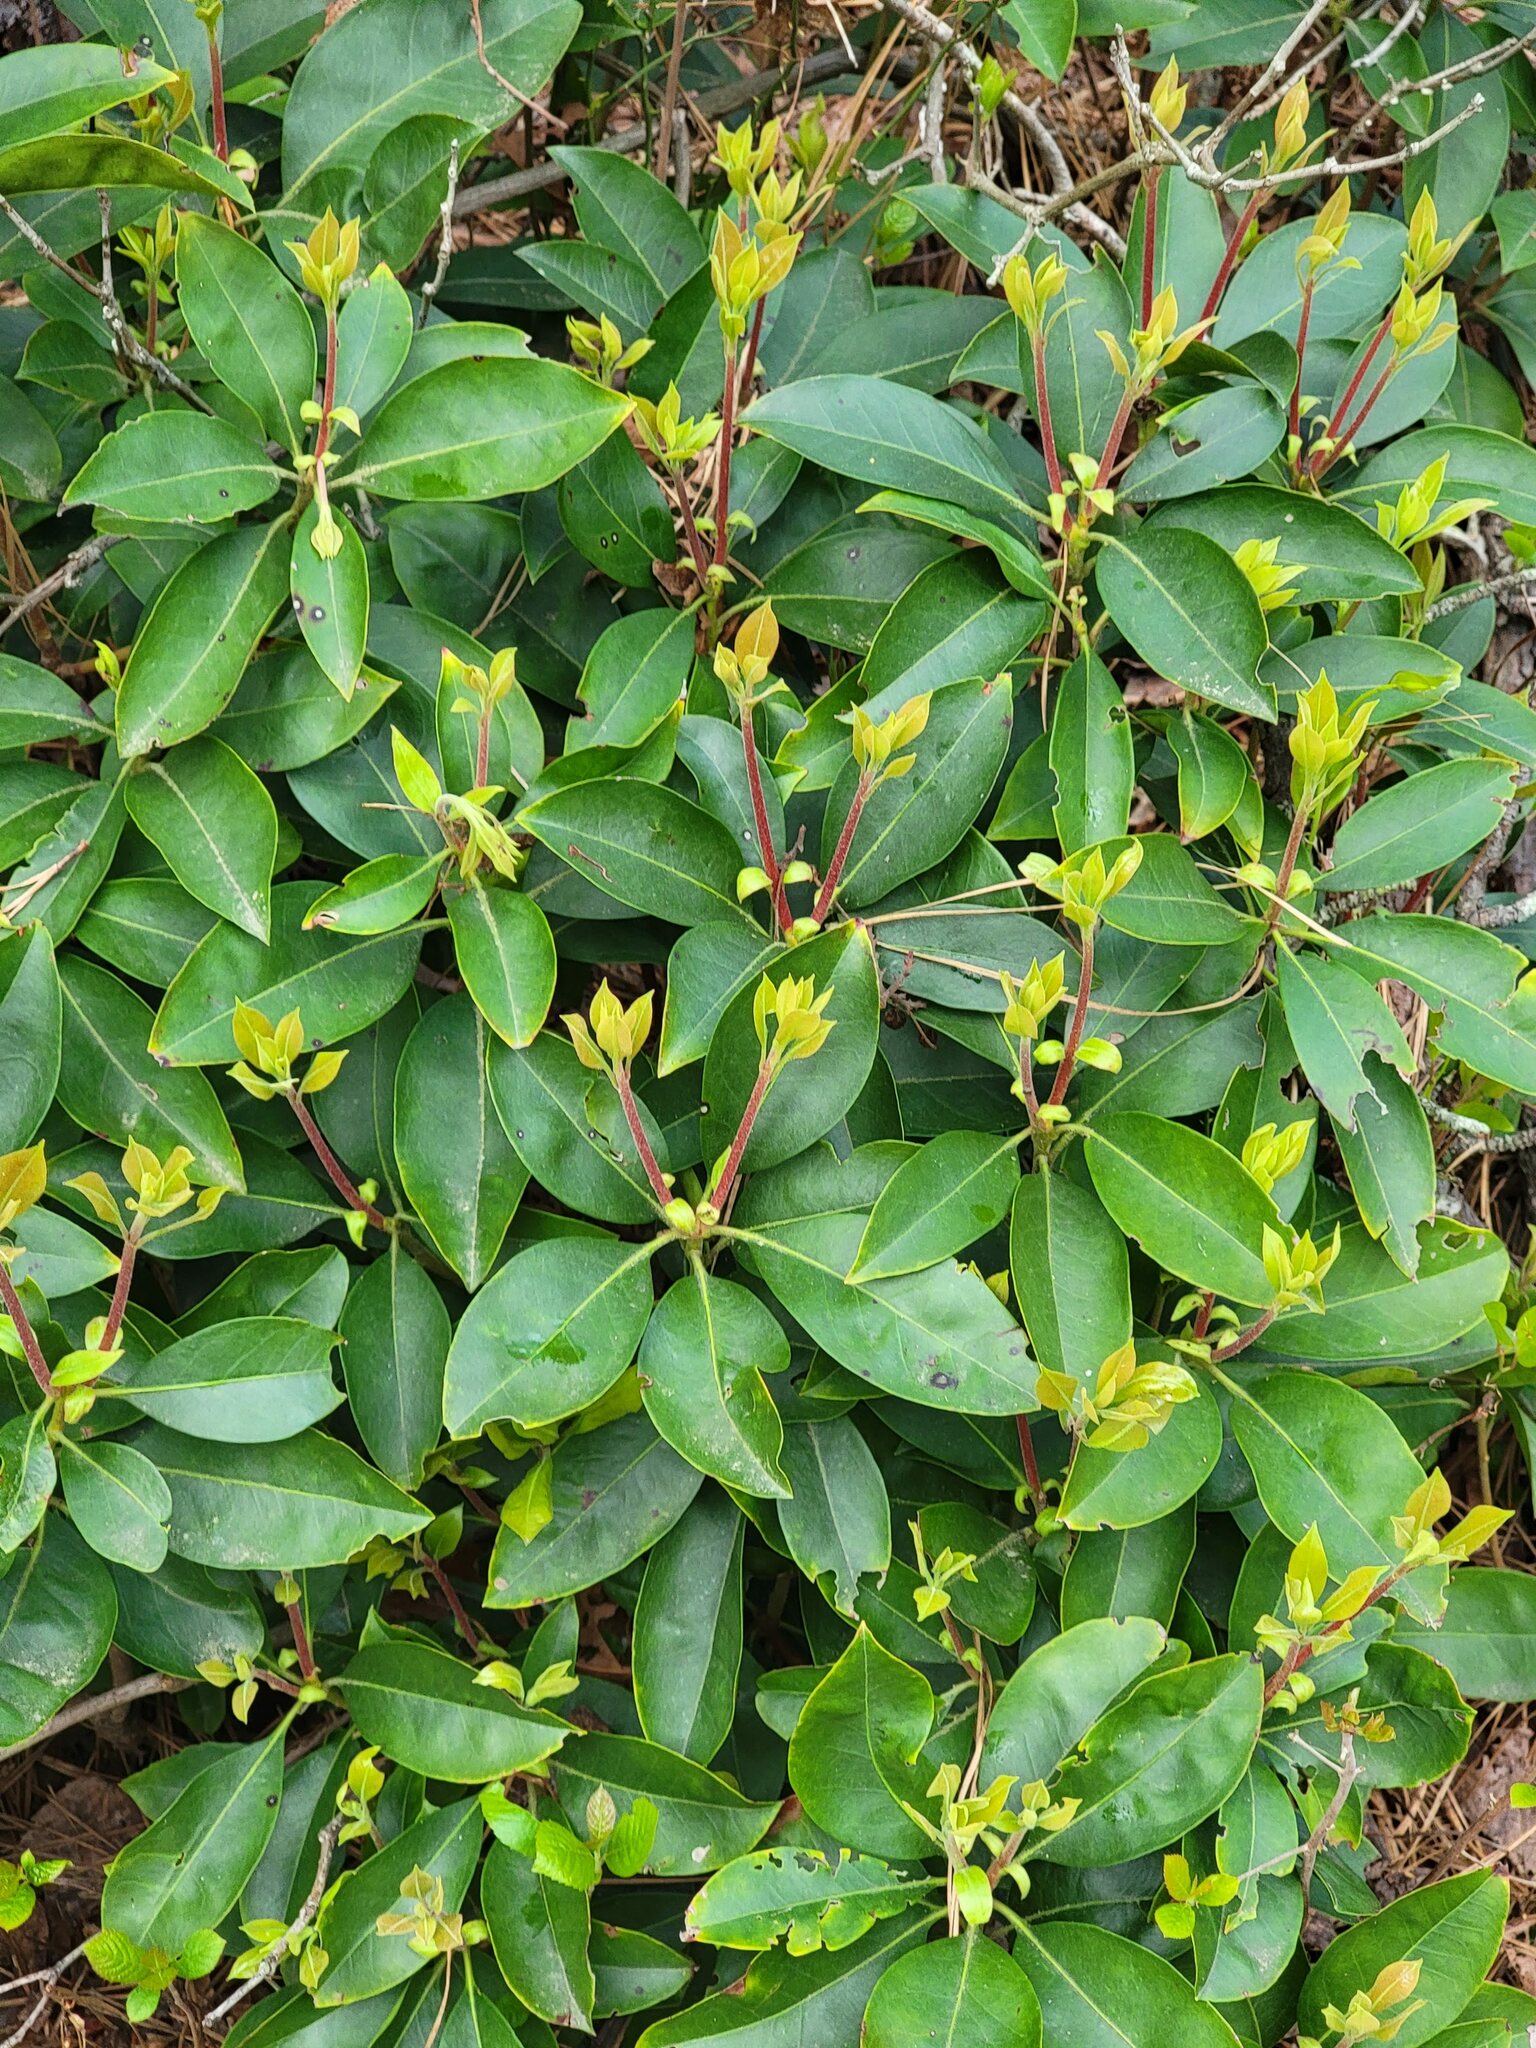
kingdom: Plantae
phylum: Tracheophyta
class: Magnoliopsida
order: Ericales
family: Ericaceae
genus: Kalmia
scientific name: Kalmia latifolia
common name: Mountain-laurel
